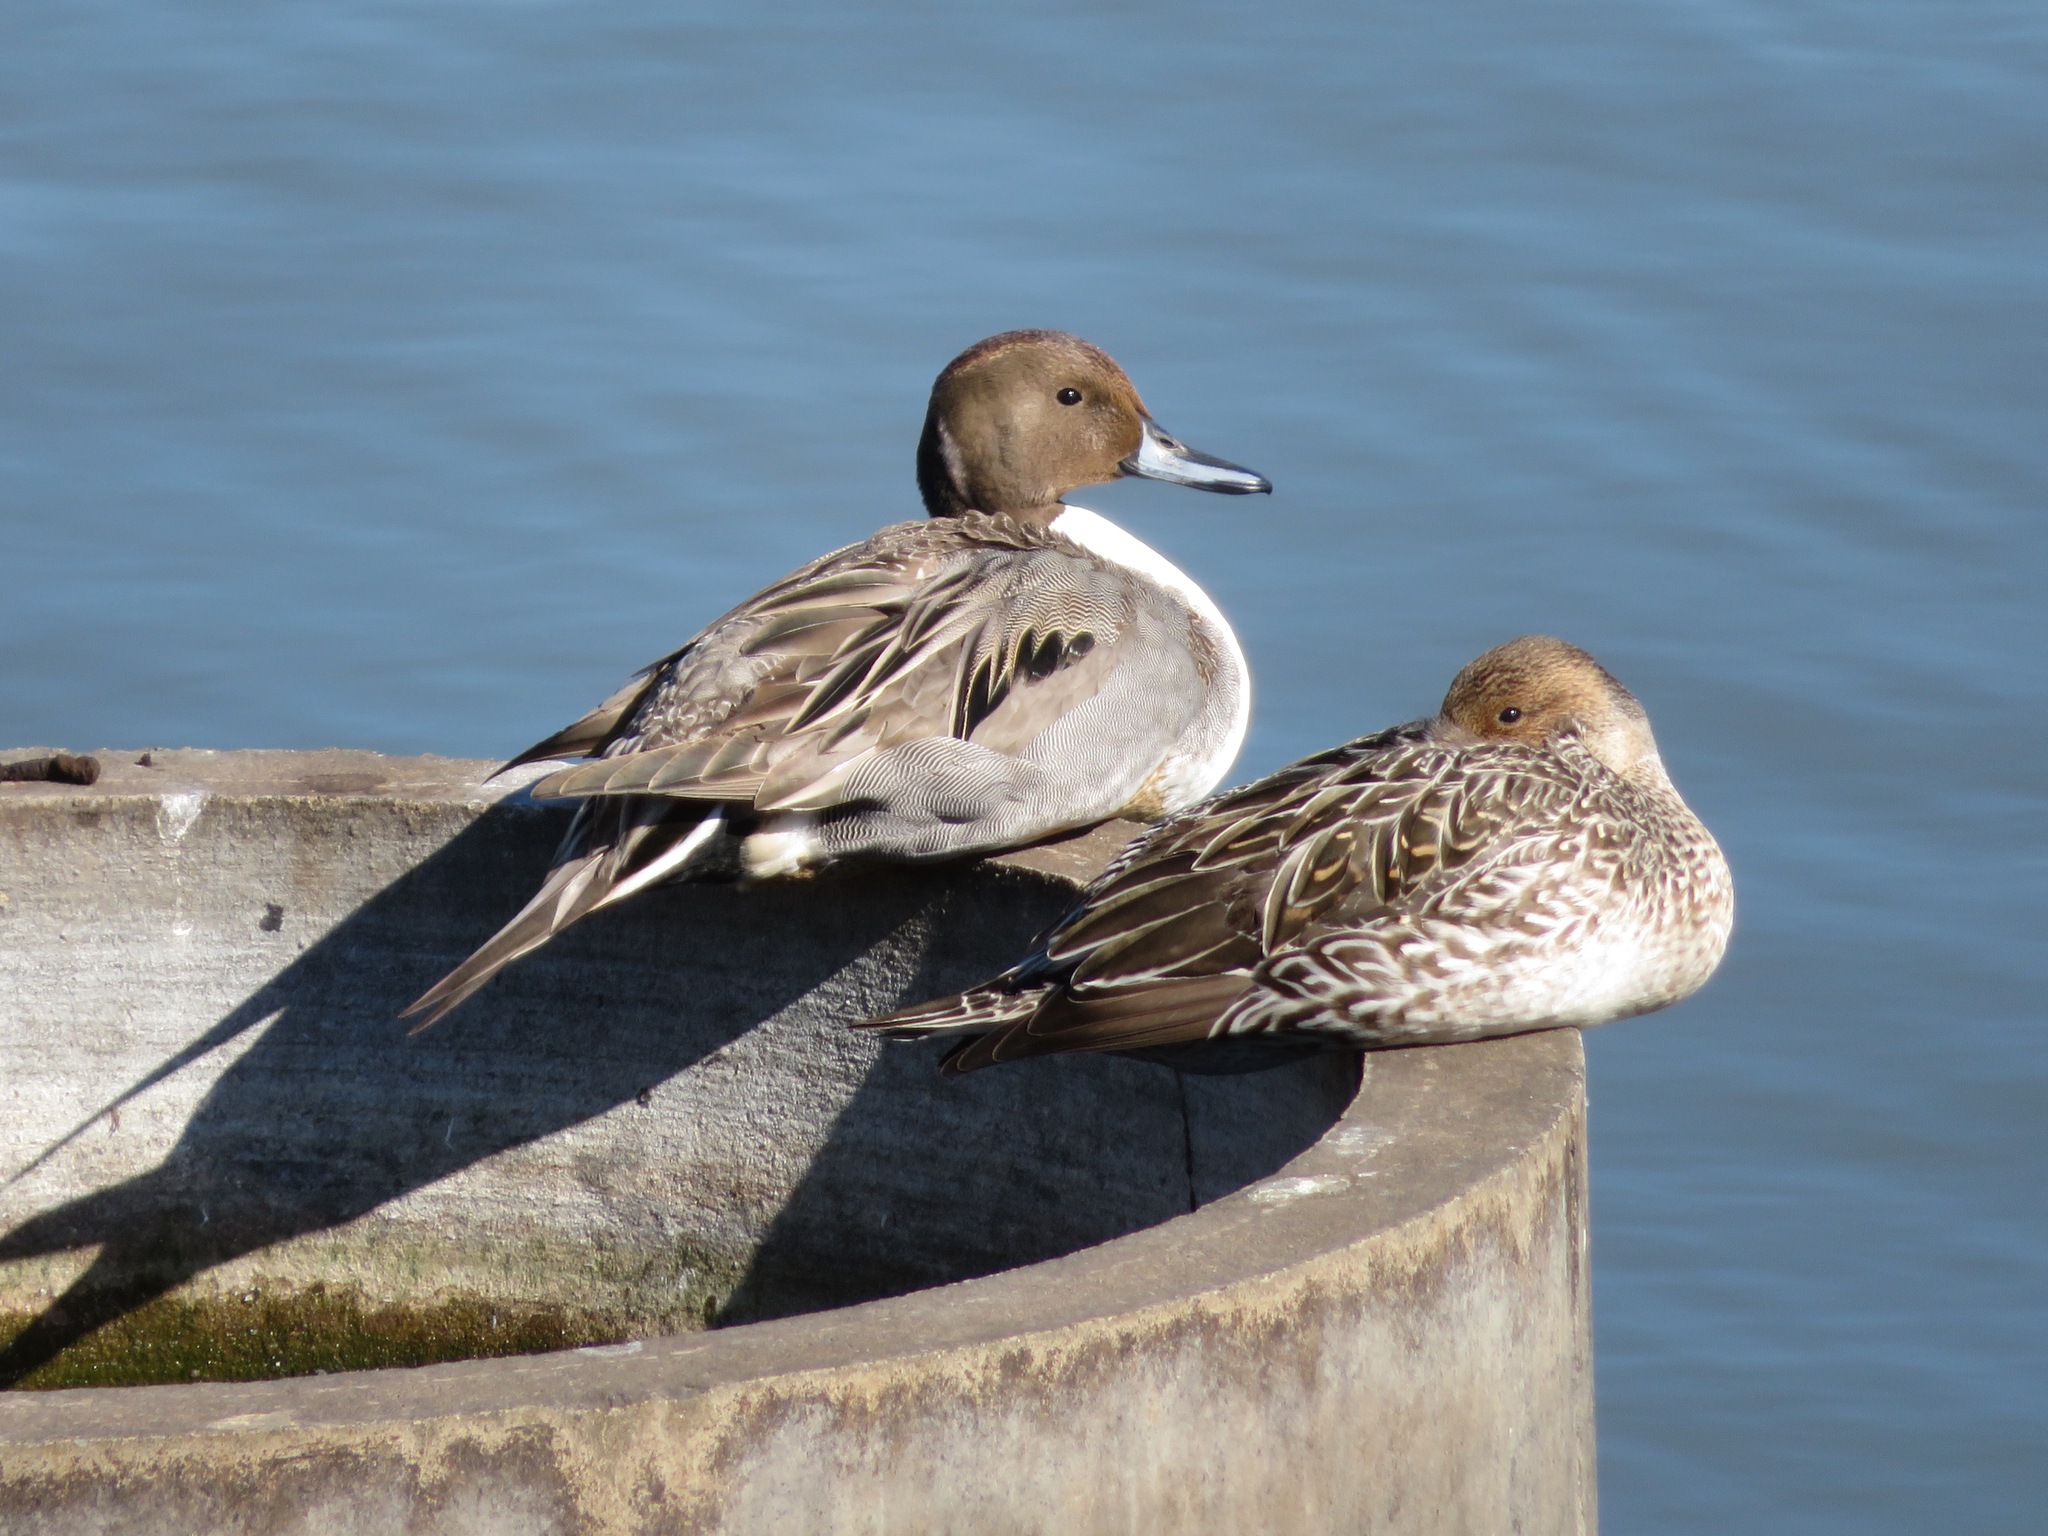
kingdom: Animalia
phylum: Chordata
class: Aves
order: Anseriformes
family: Anatidae
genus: Anas
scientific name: Anas acuta
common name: Northern pintail
